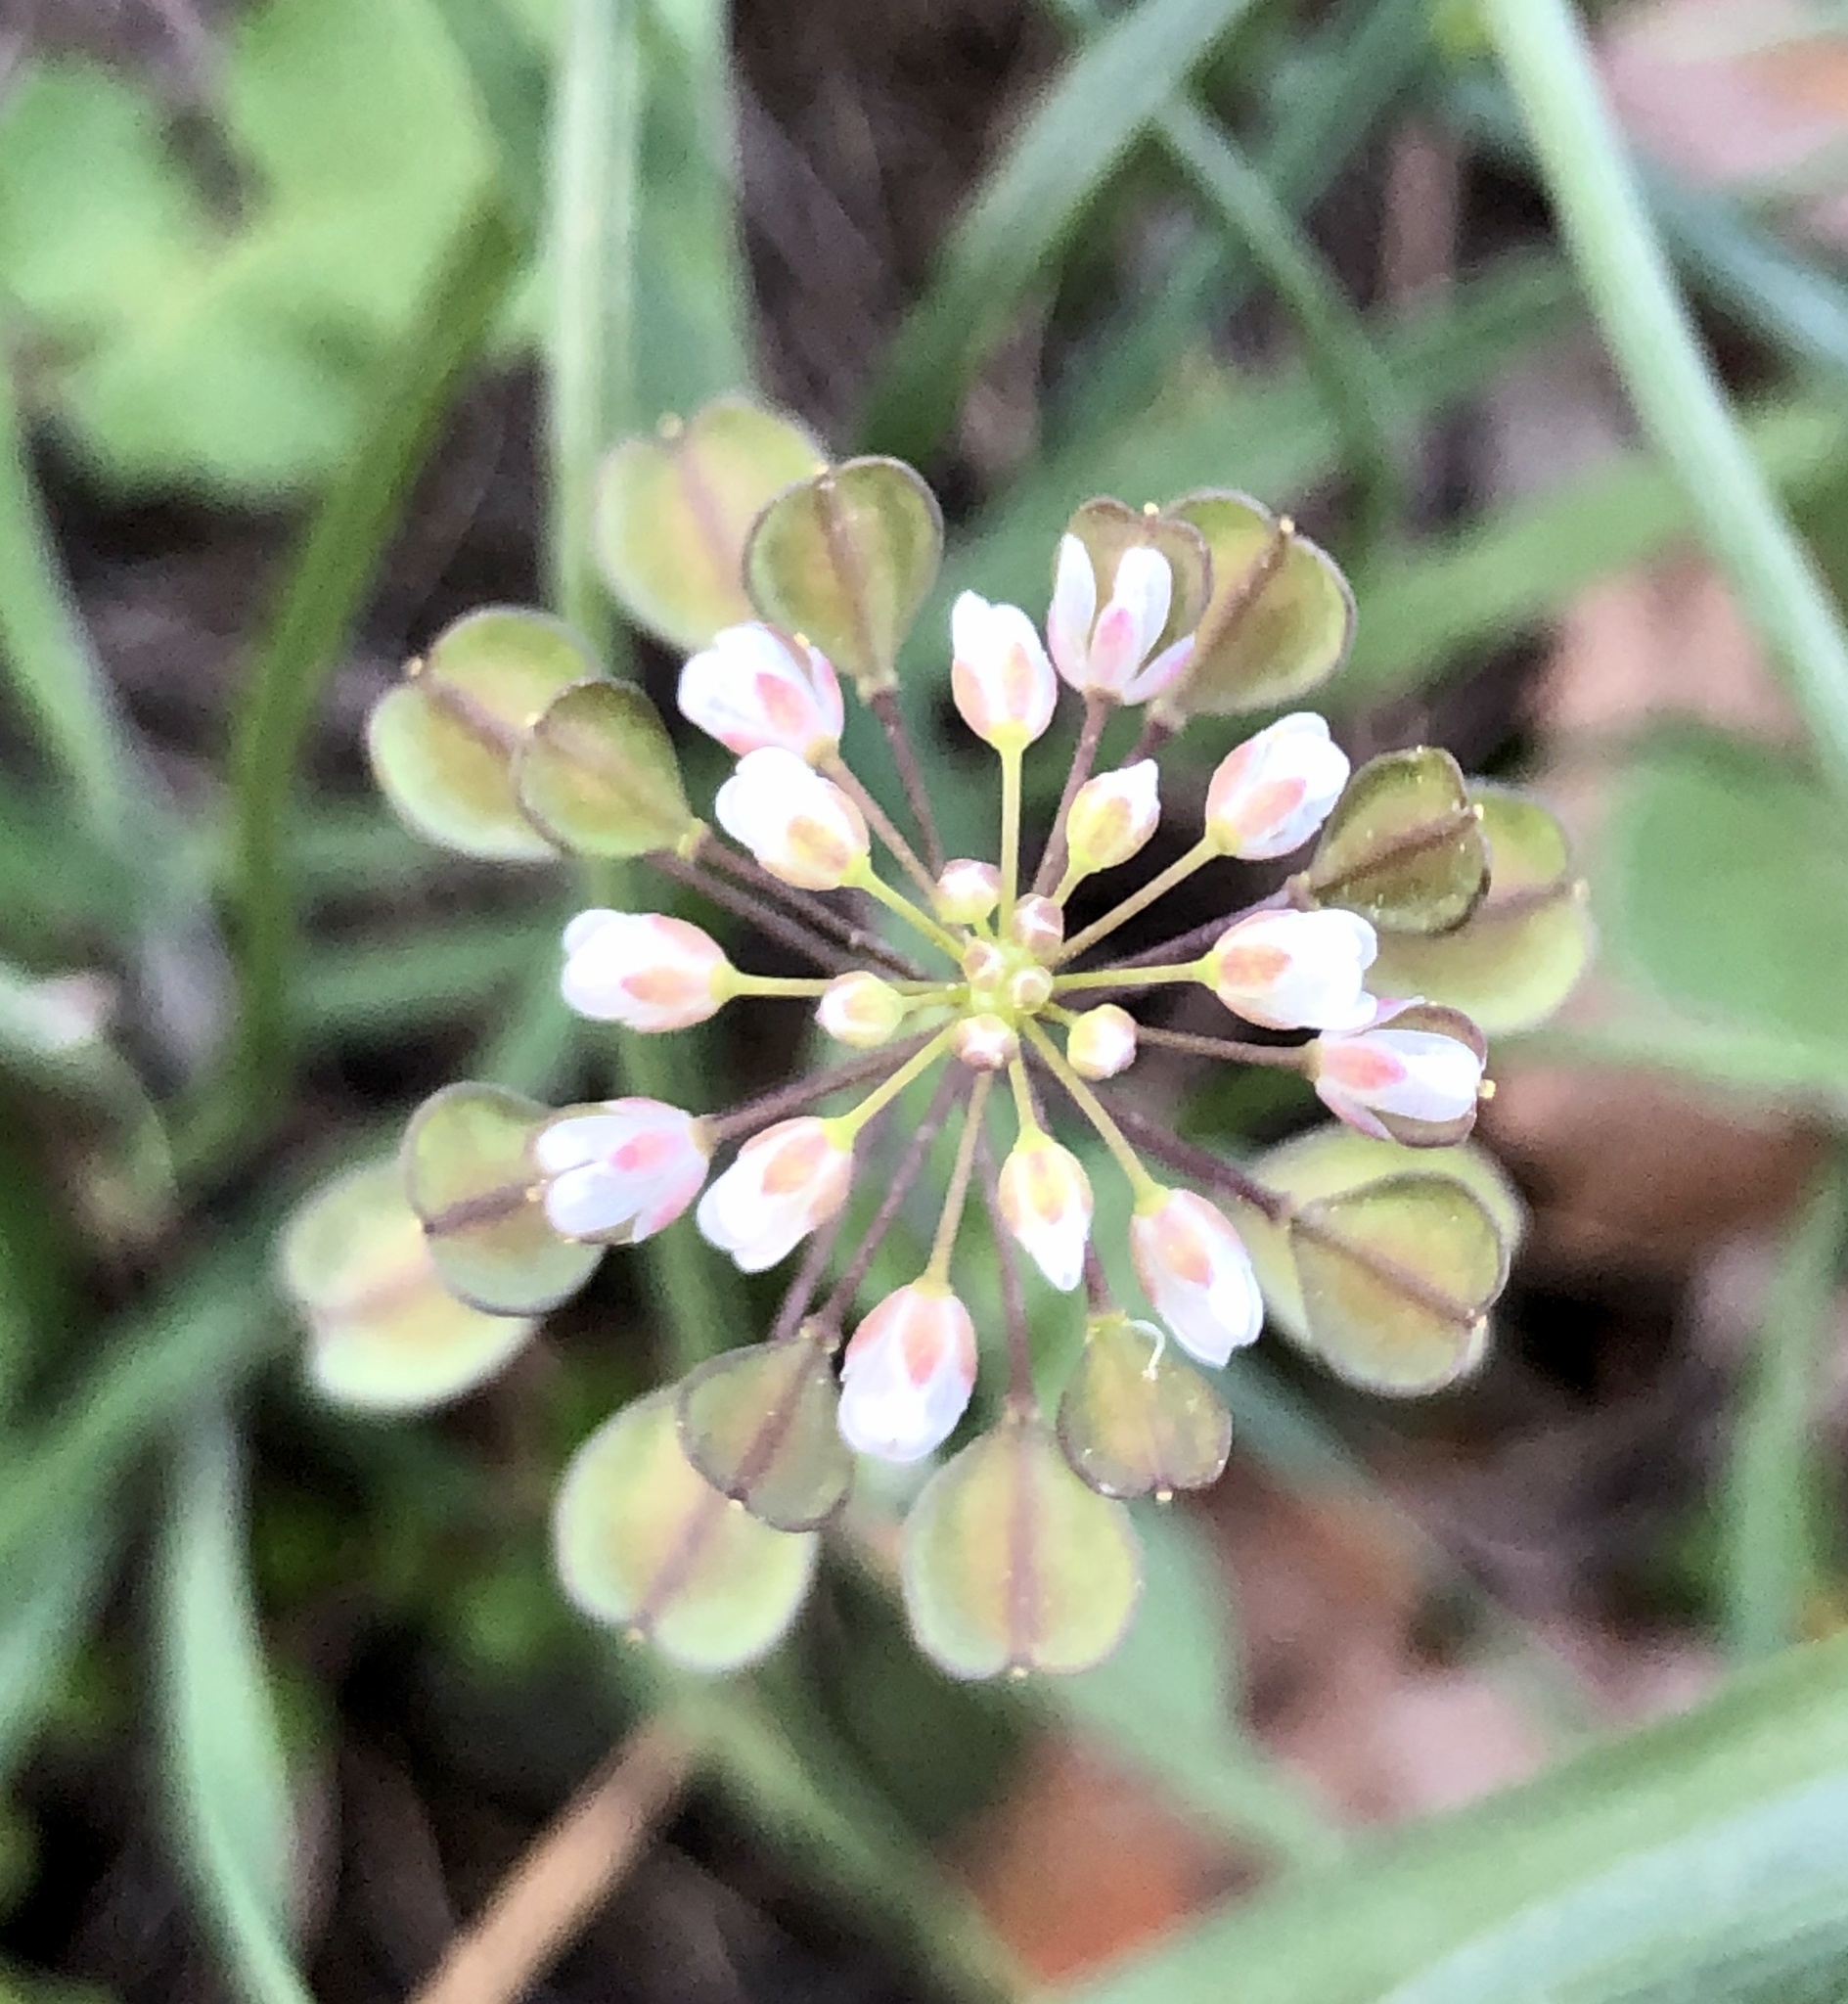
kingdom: Plantae
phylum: Tracheophyta
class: Magnoliopsida
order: Brassicales
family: Brassicaceae
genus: Noccaea
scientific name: Noccaea perfoliata
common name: Perfoliate pennycress
